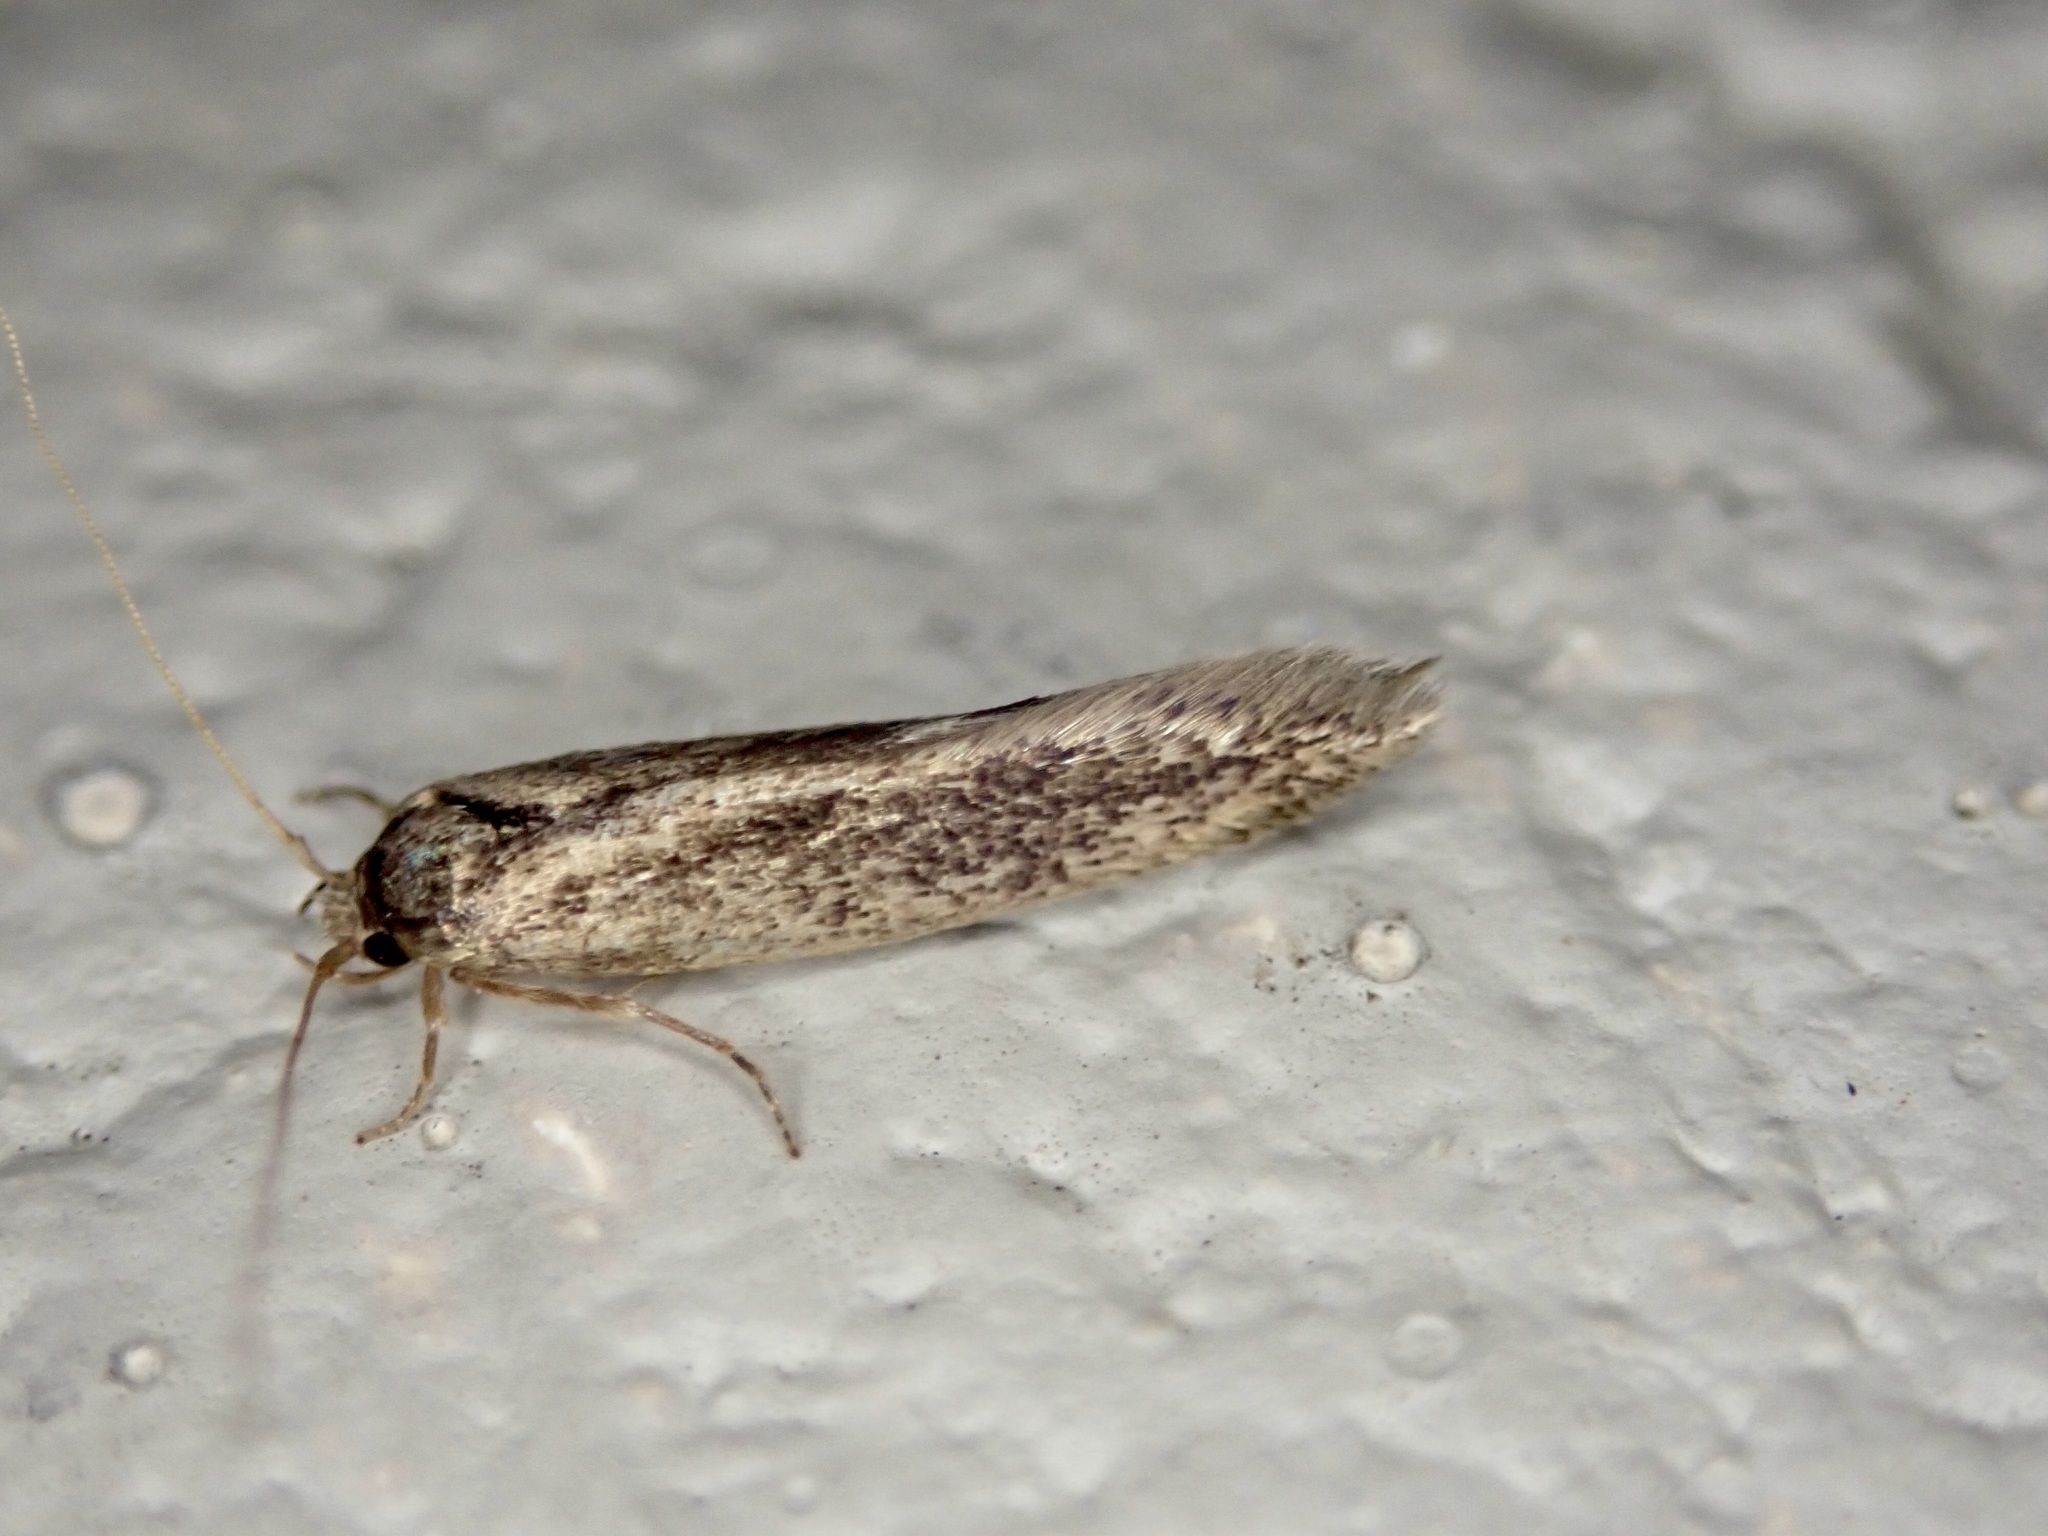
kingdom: Animalia
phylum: Arthropoda
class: Insecta
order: Lepidoptera
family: Tineidae
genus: Opogona
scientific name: Opogona omoscopa
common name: Moth
